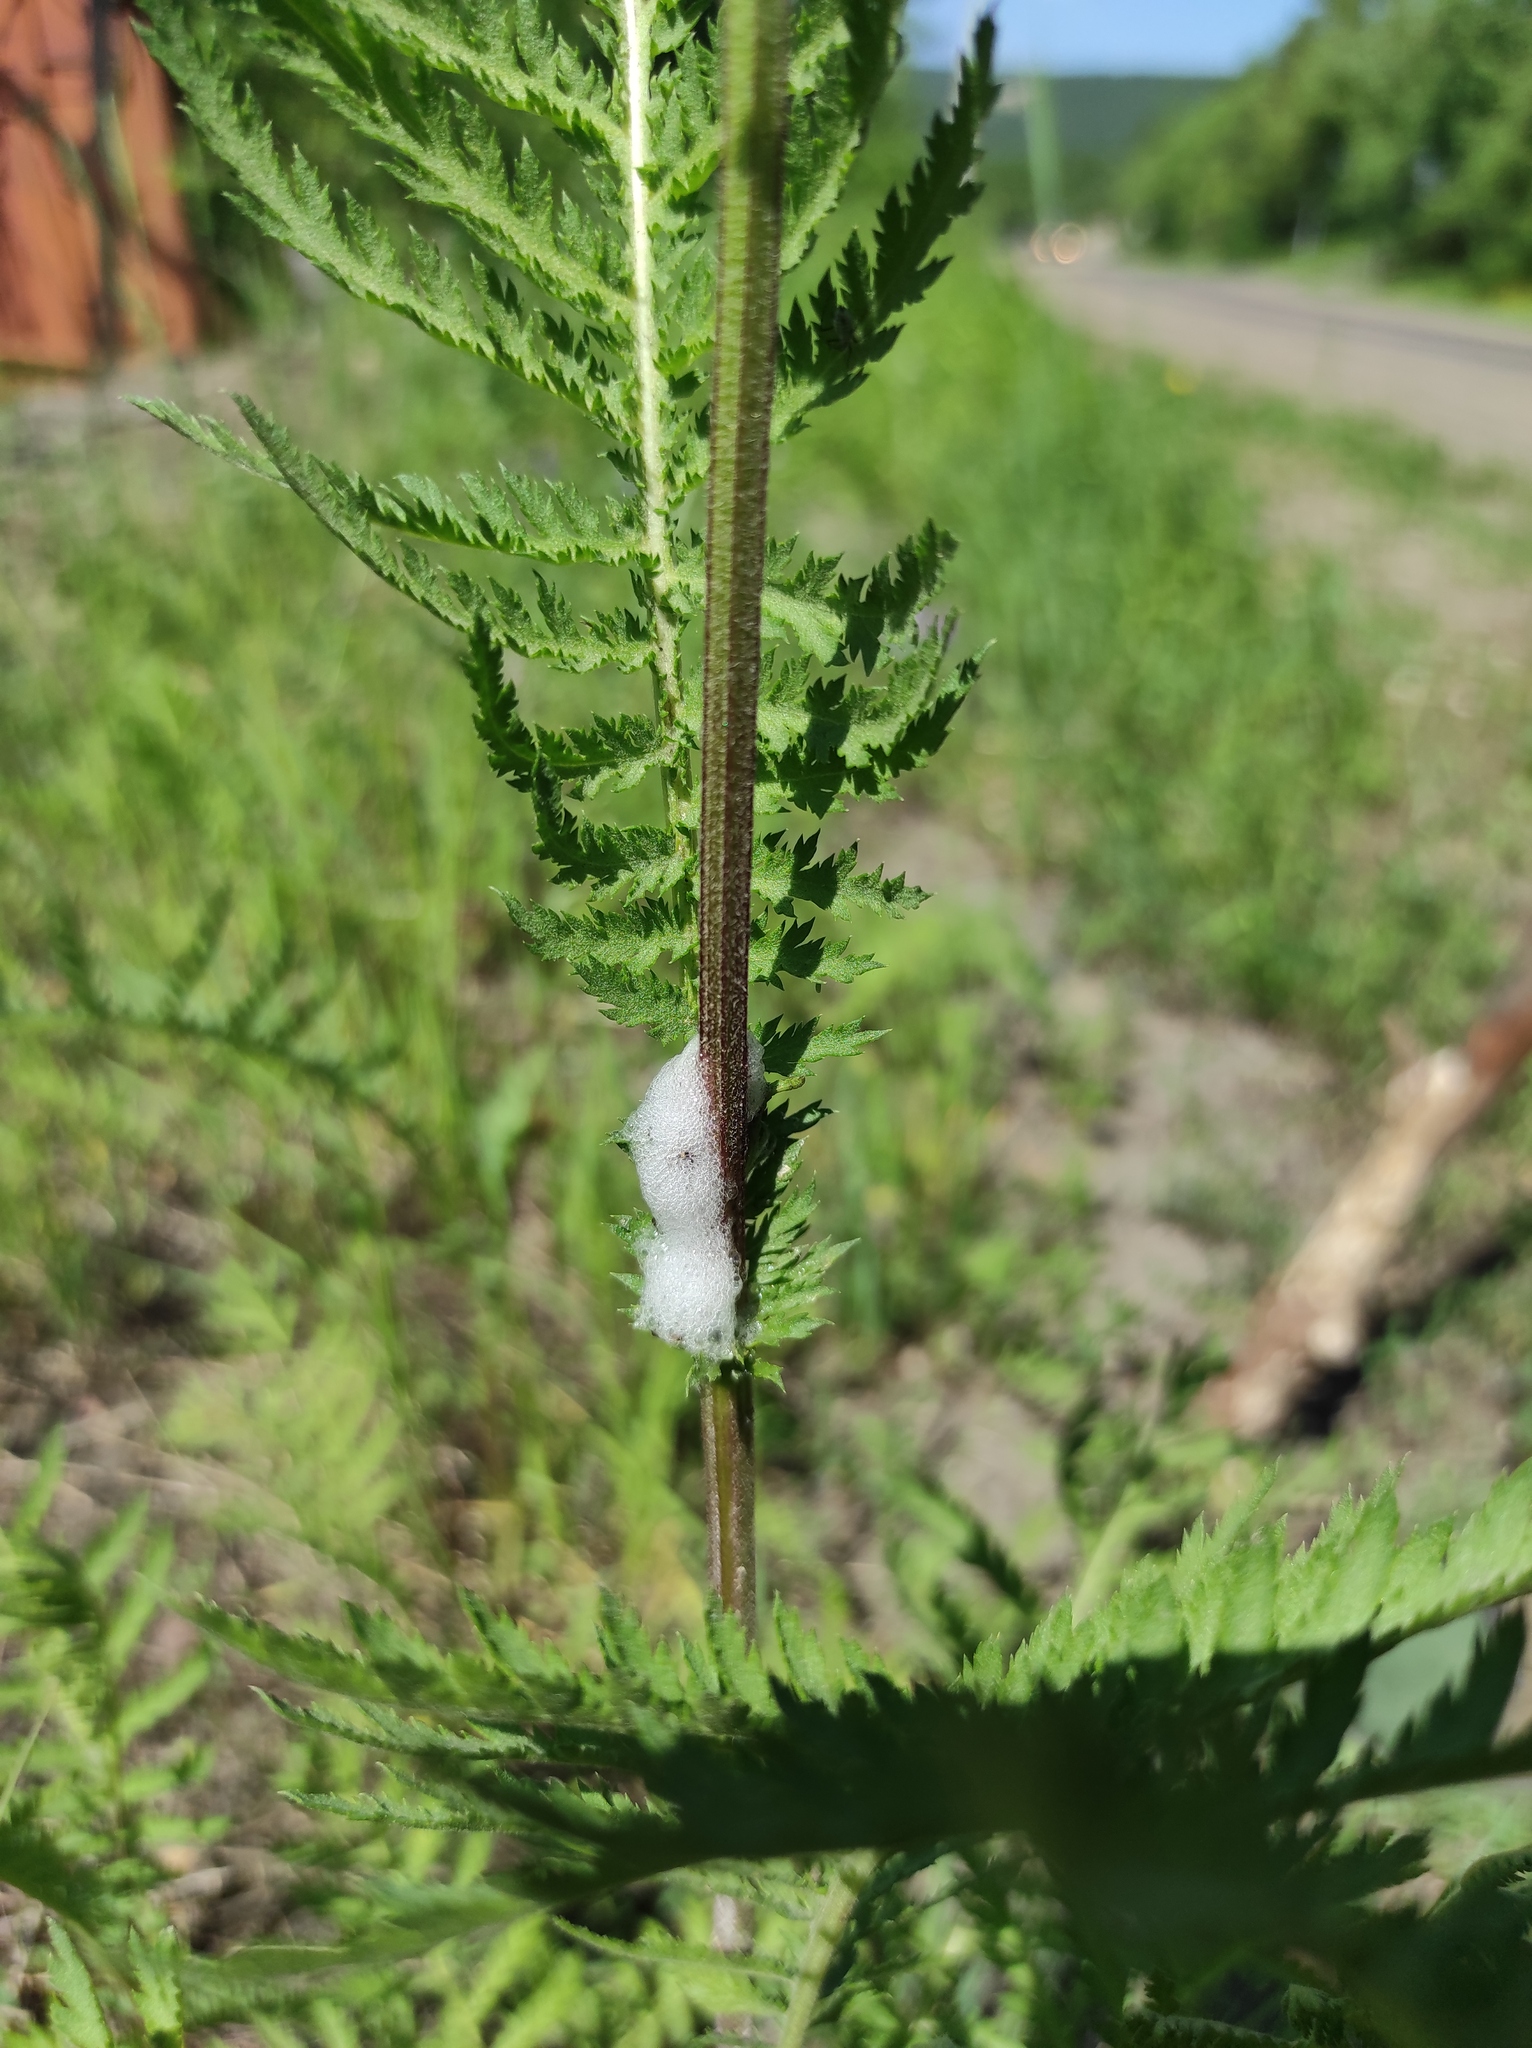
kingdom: Plantae
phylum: Tracheophyta
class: Magnoliopsida
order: Asterales
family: Asteraceae
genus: Tanacetum
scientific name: Tanacetum vulgare
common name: Common tansy
